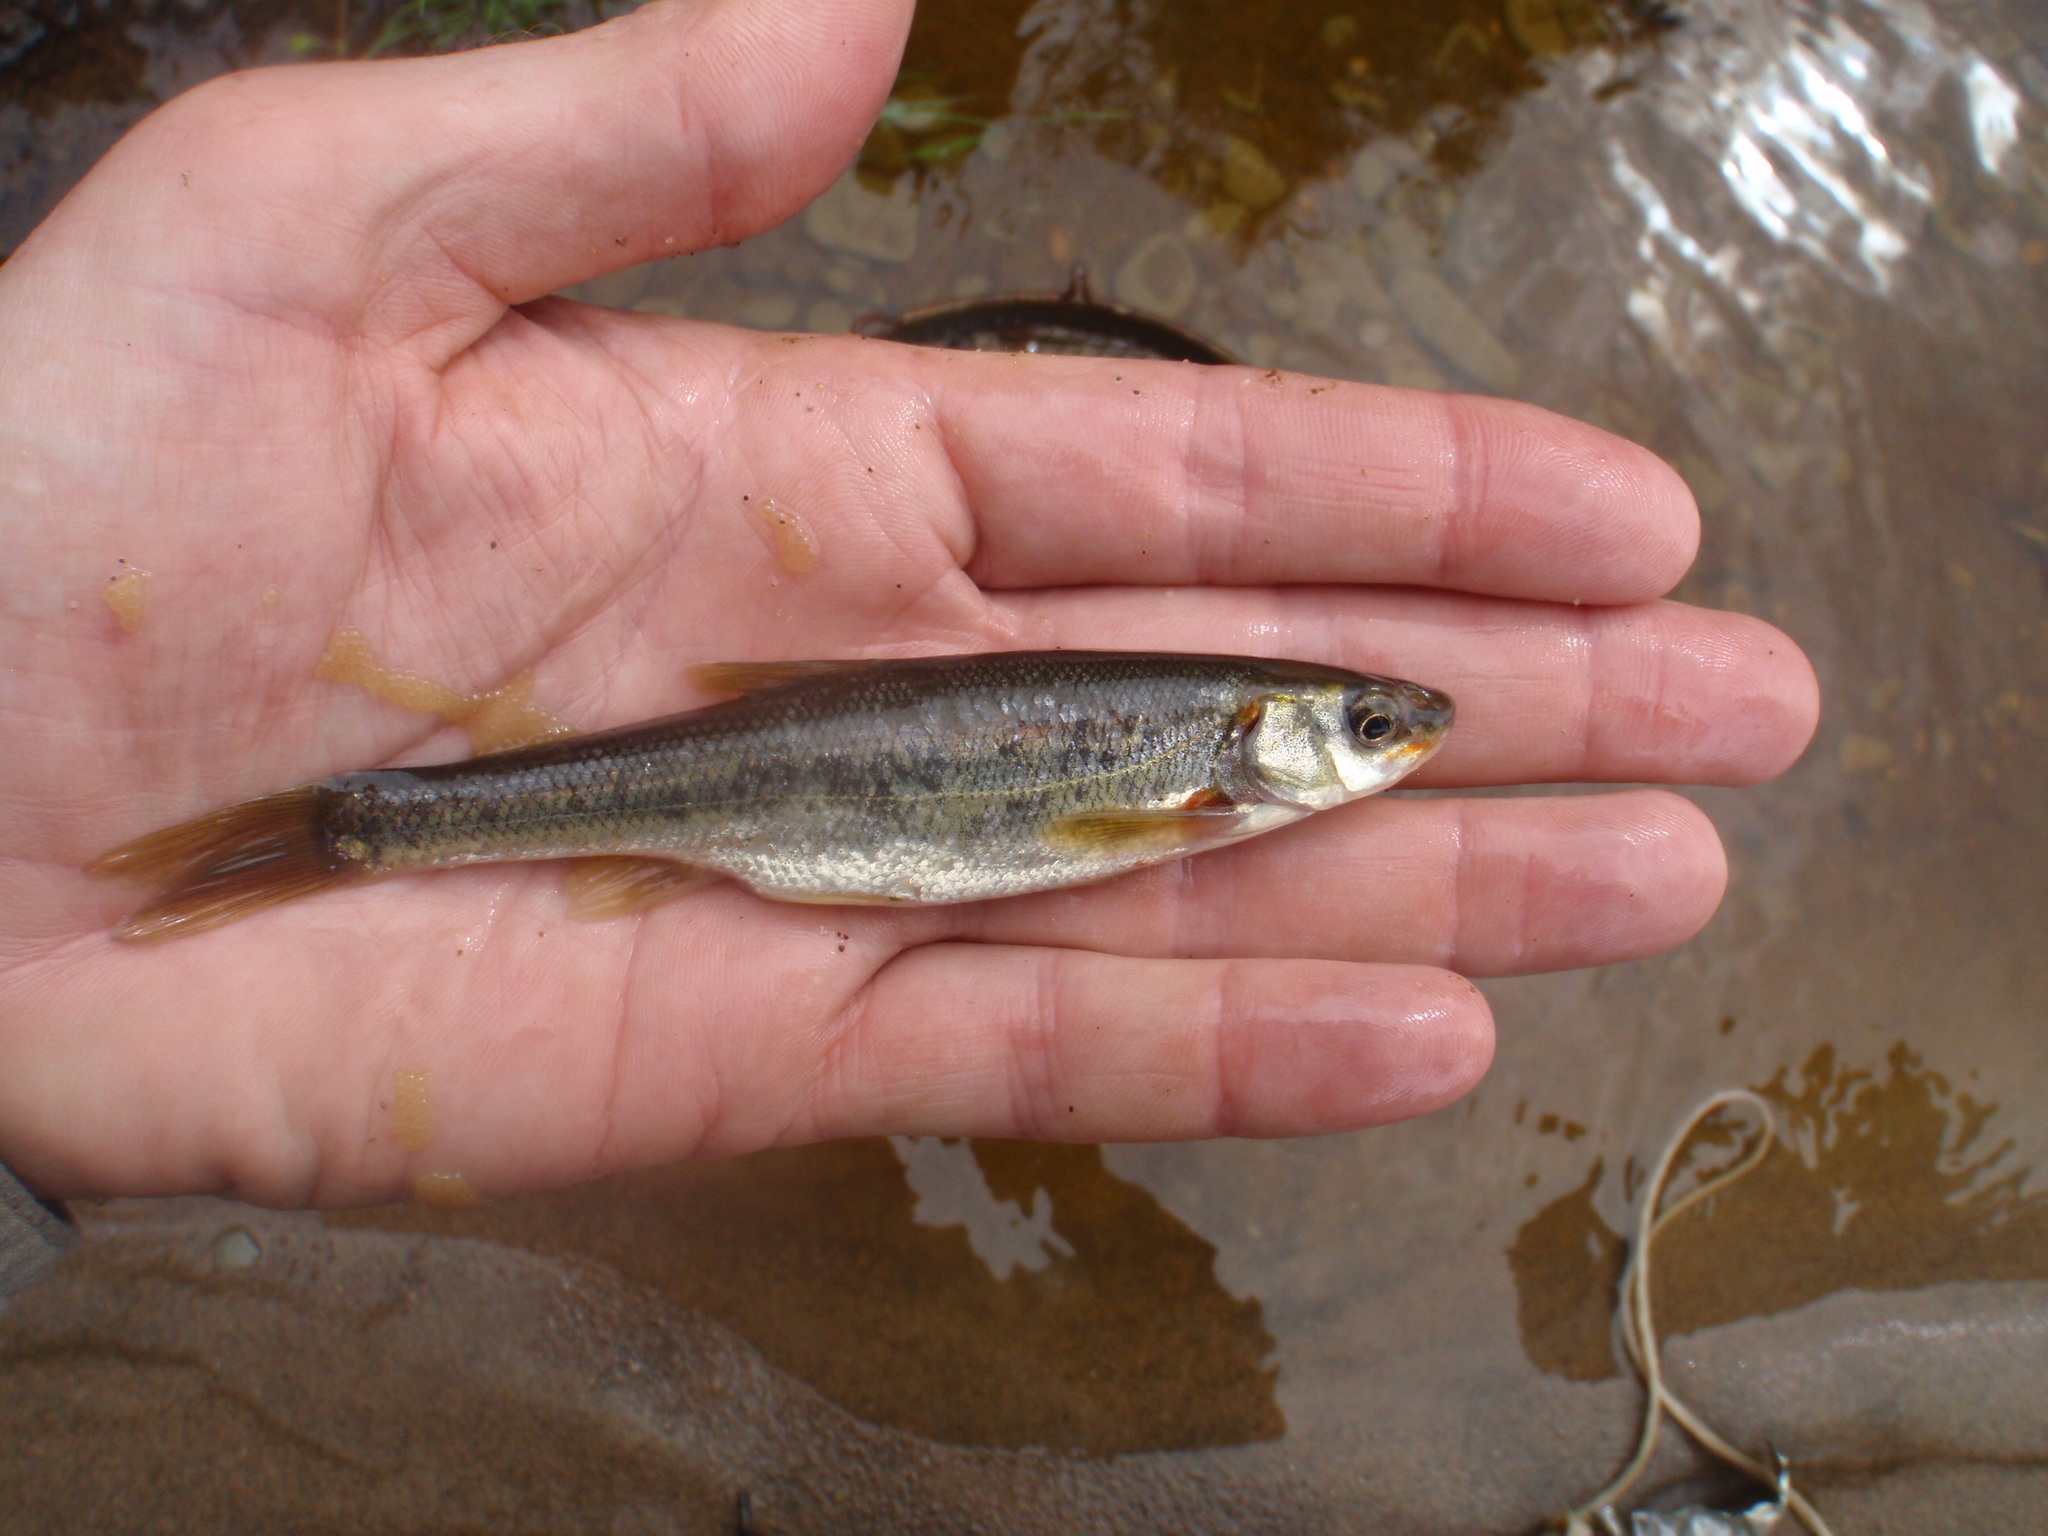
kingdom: Animalia
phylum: Chordata
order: Cypriniformes
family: Cyprinidae
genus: Couesius
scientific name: Couesius plumbeus
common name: Lake chub
